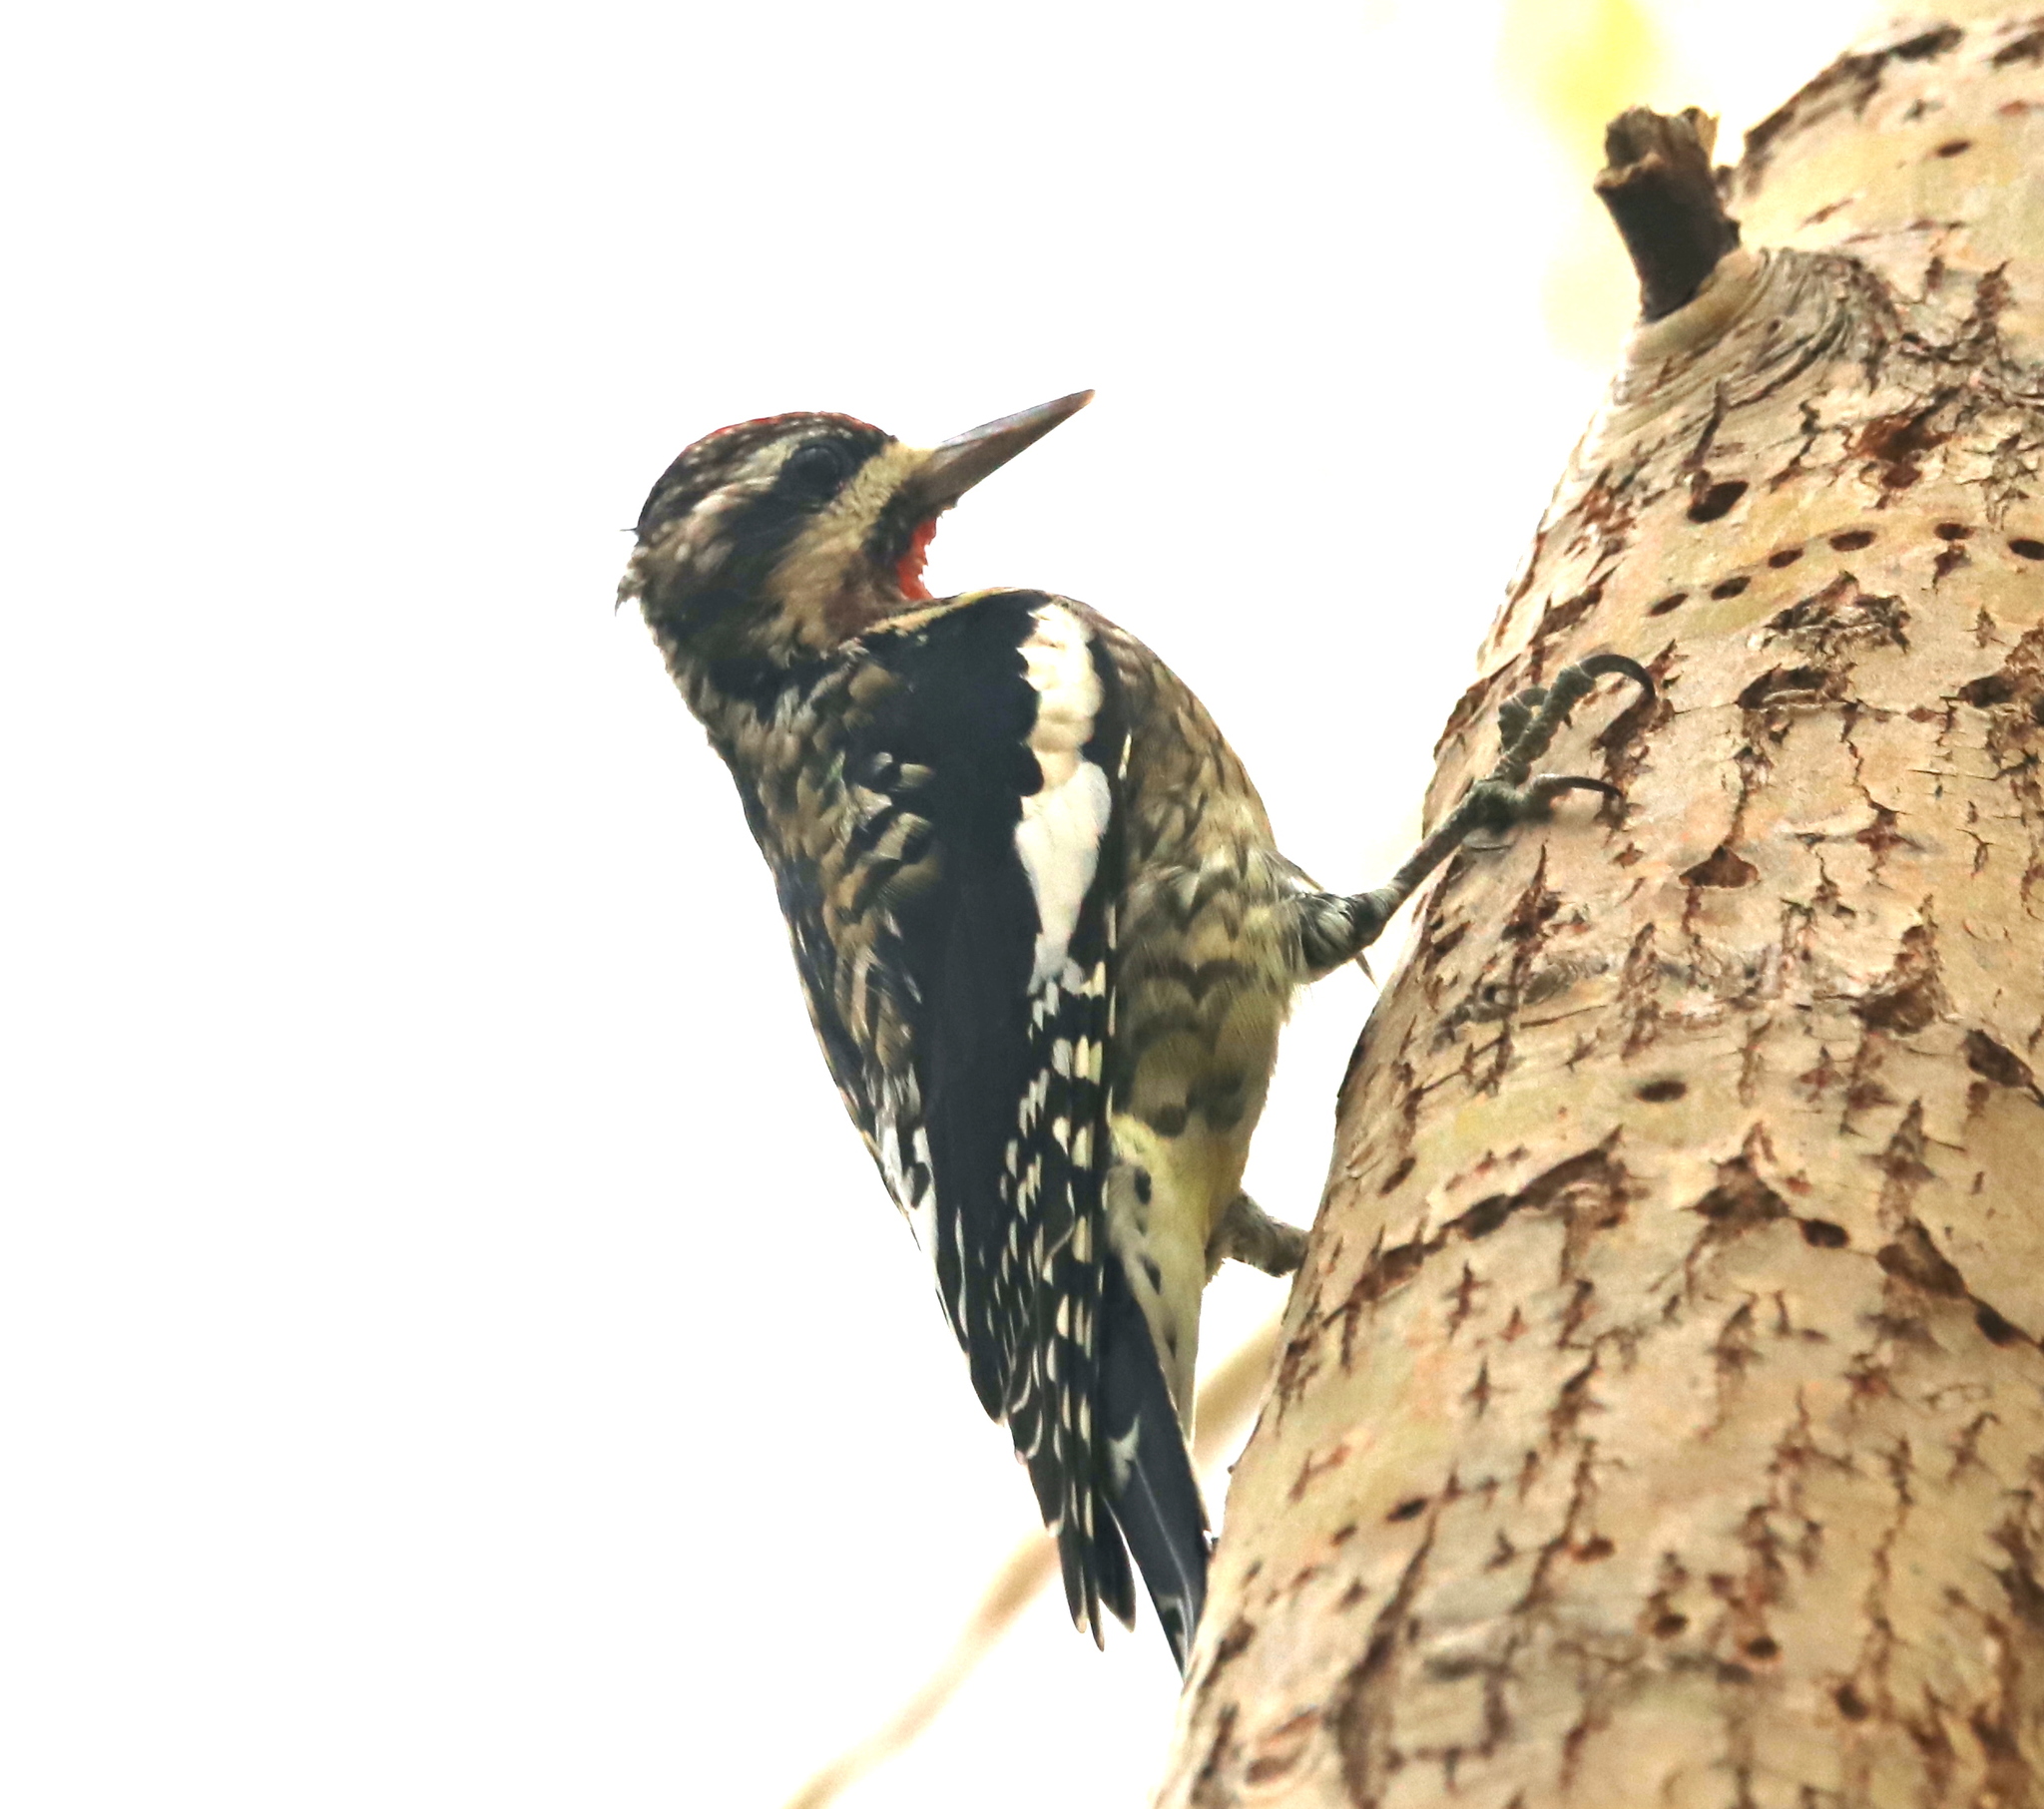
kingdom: Animalia
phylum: Chordata
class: Aves
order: Piciformes
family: Picidae
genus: Sphyrapicus
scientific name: Sphyrapicus varius
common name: Yellow-bellied sapsucker
